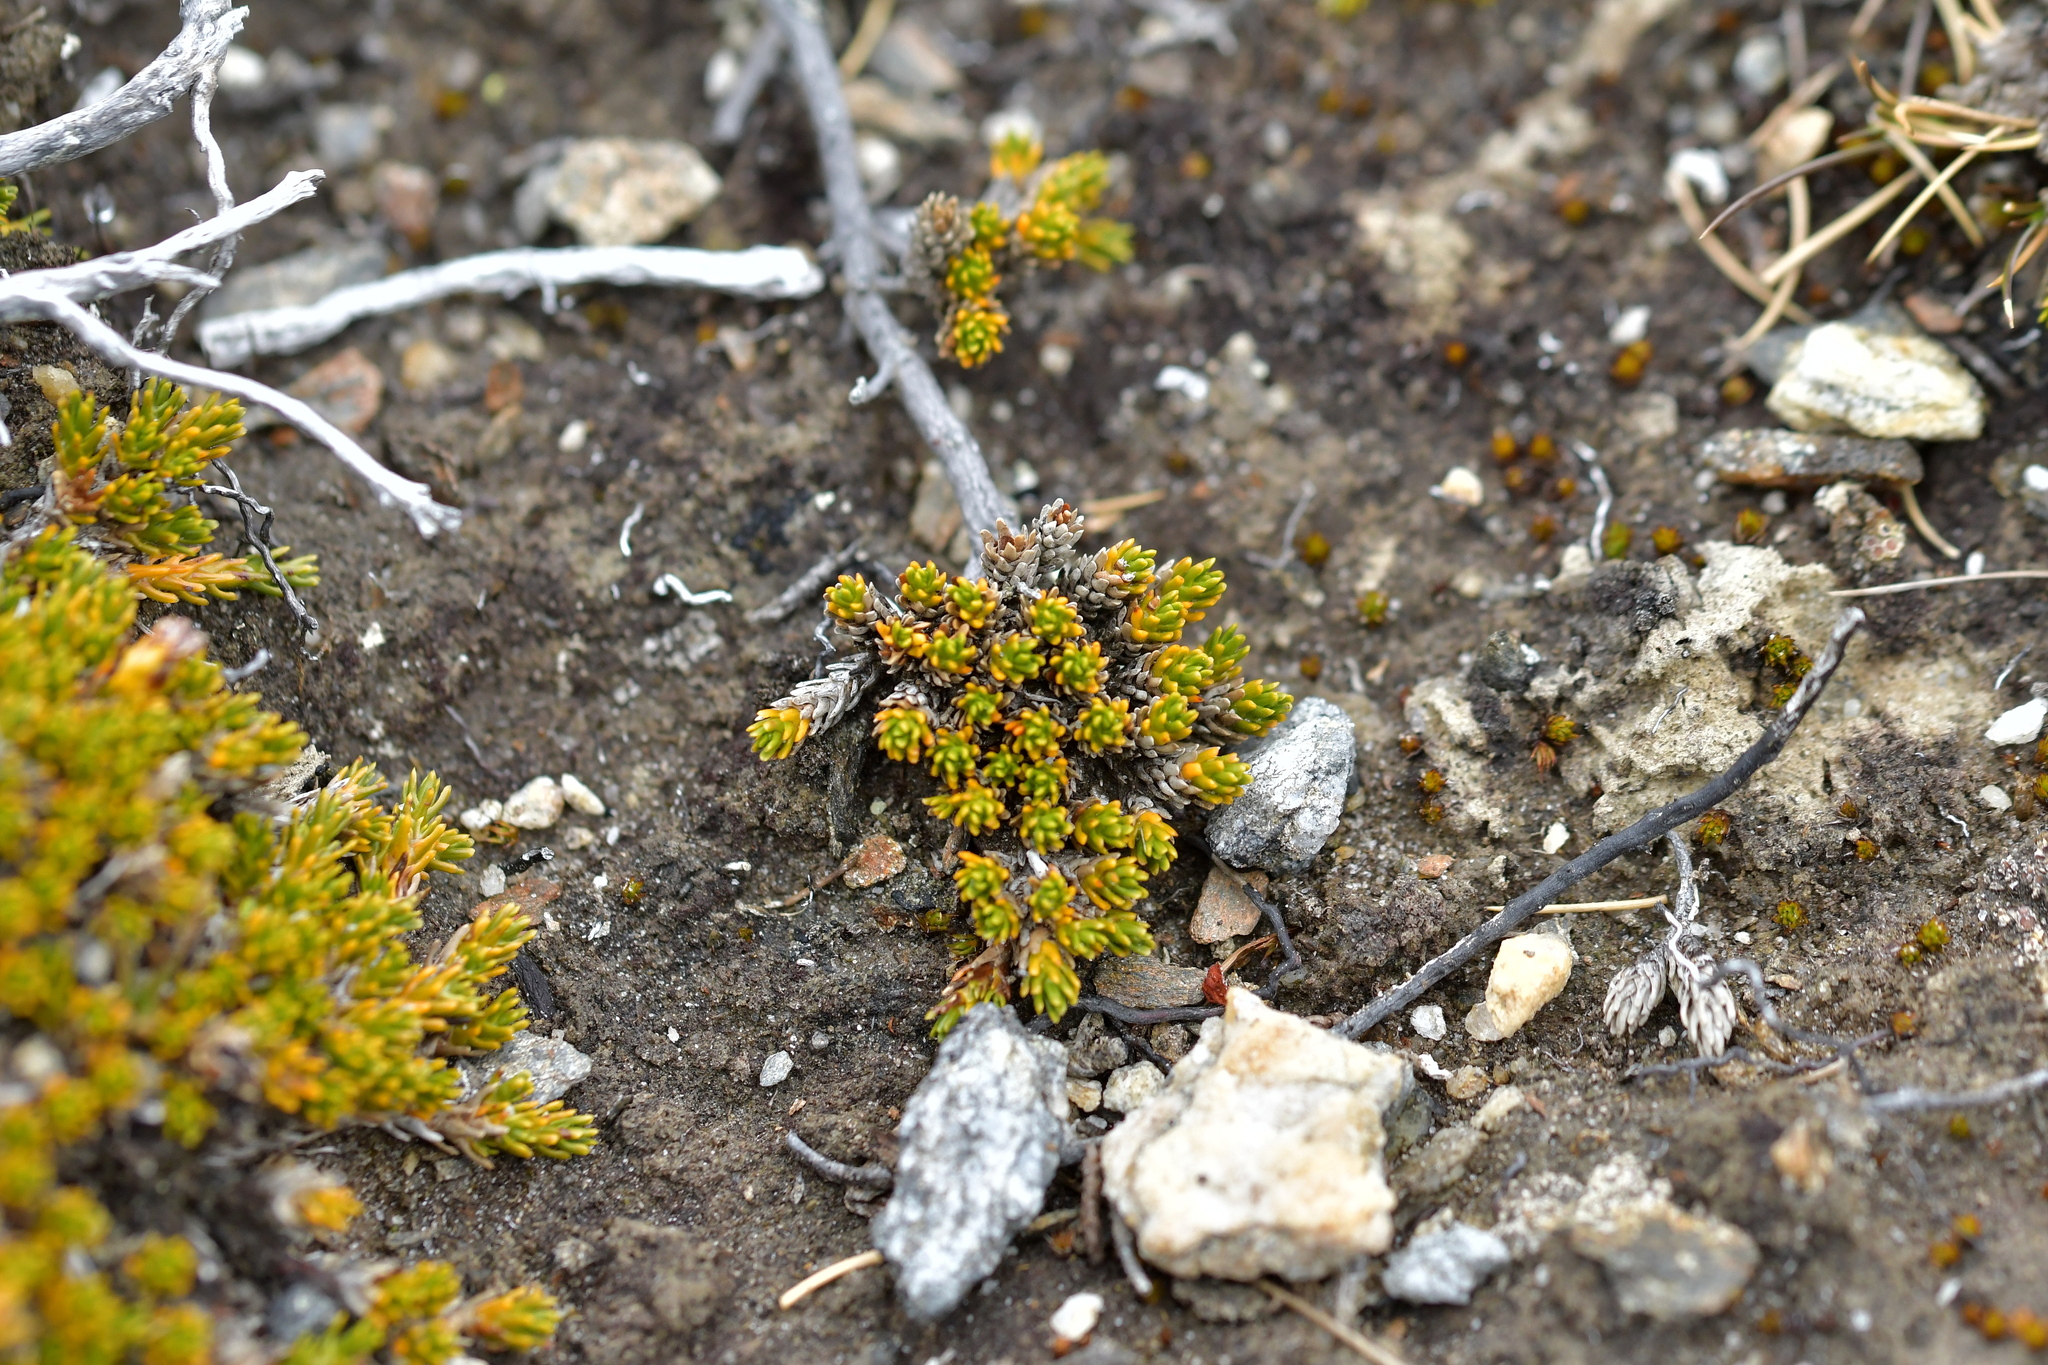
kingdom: Plantae
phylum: Tracheophyta
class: Magnoliopsida
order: Ericales
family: Ericaceae
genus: Dracophyllum
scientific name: Dracophyllum muscoides
